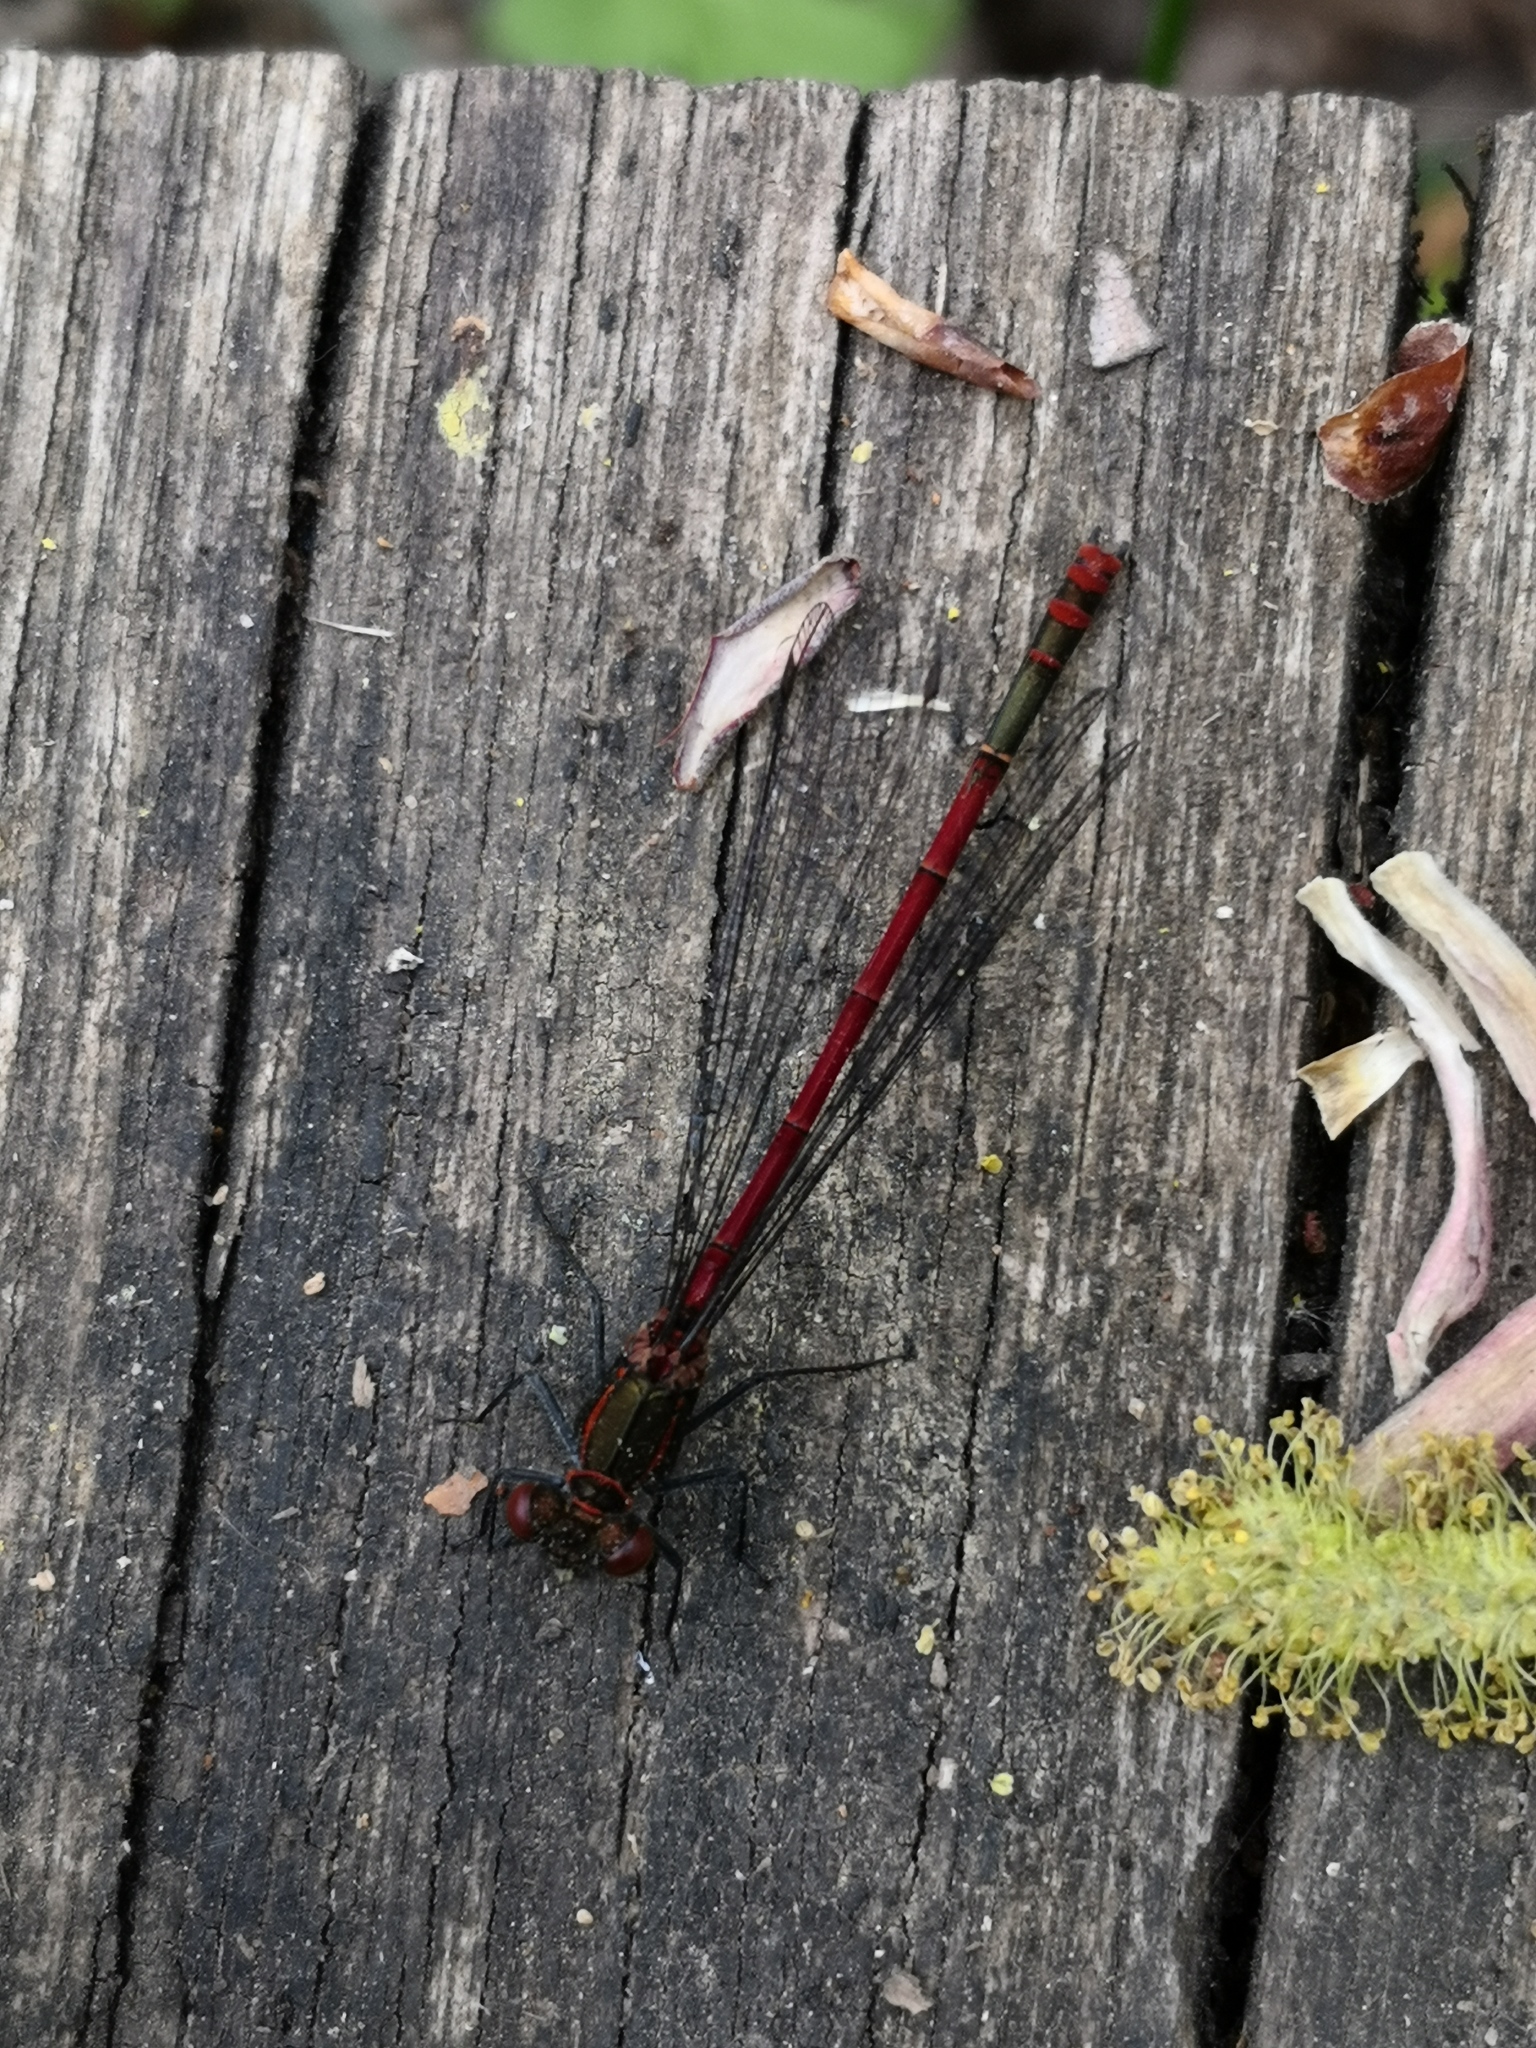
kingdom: Animalia
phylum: Arthropoda
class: Insecta
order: Odonata
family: Coenagrionidae
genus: Pyrrhosoma
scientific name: Pyrrhosoma nymphula
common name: Large red damsel
